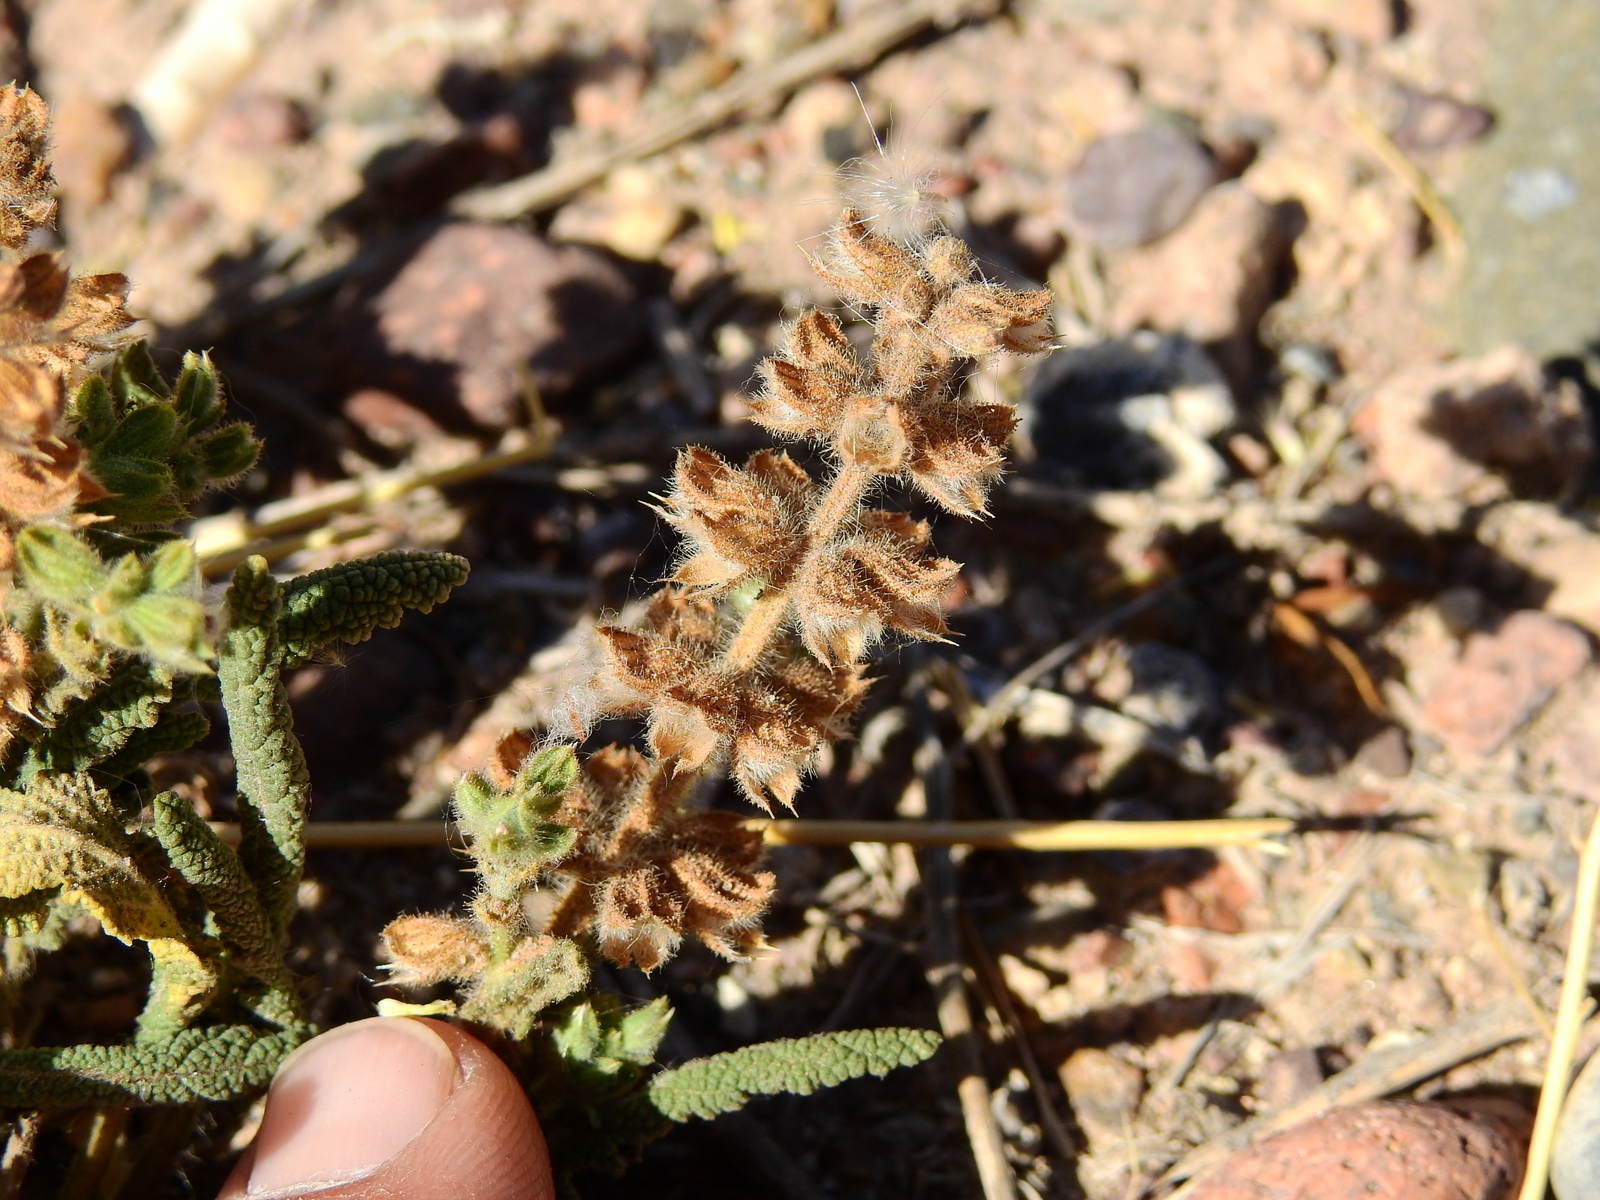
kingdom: Plantae
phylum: Tracheophyta
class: Magnoliopsida
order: Lamiales
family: Lamiaceae
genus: Salvia
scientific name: Salvia verbenaca
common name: Wild clary
